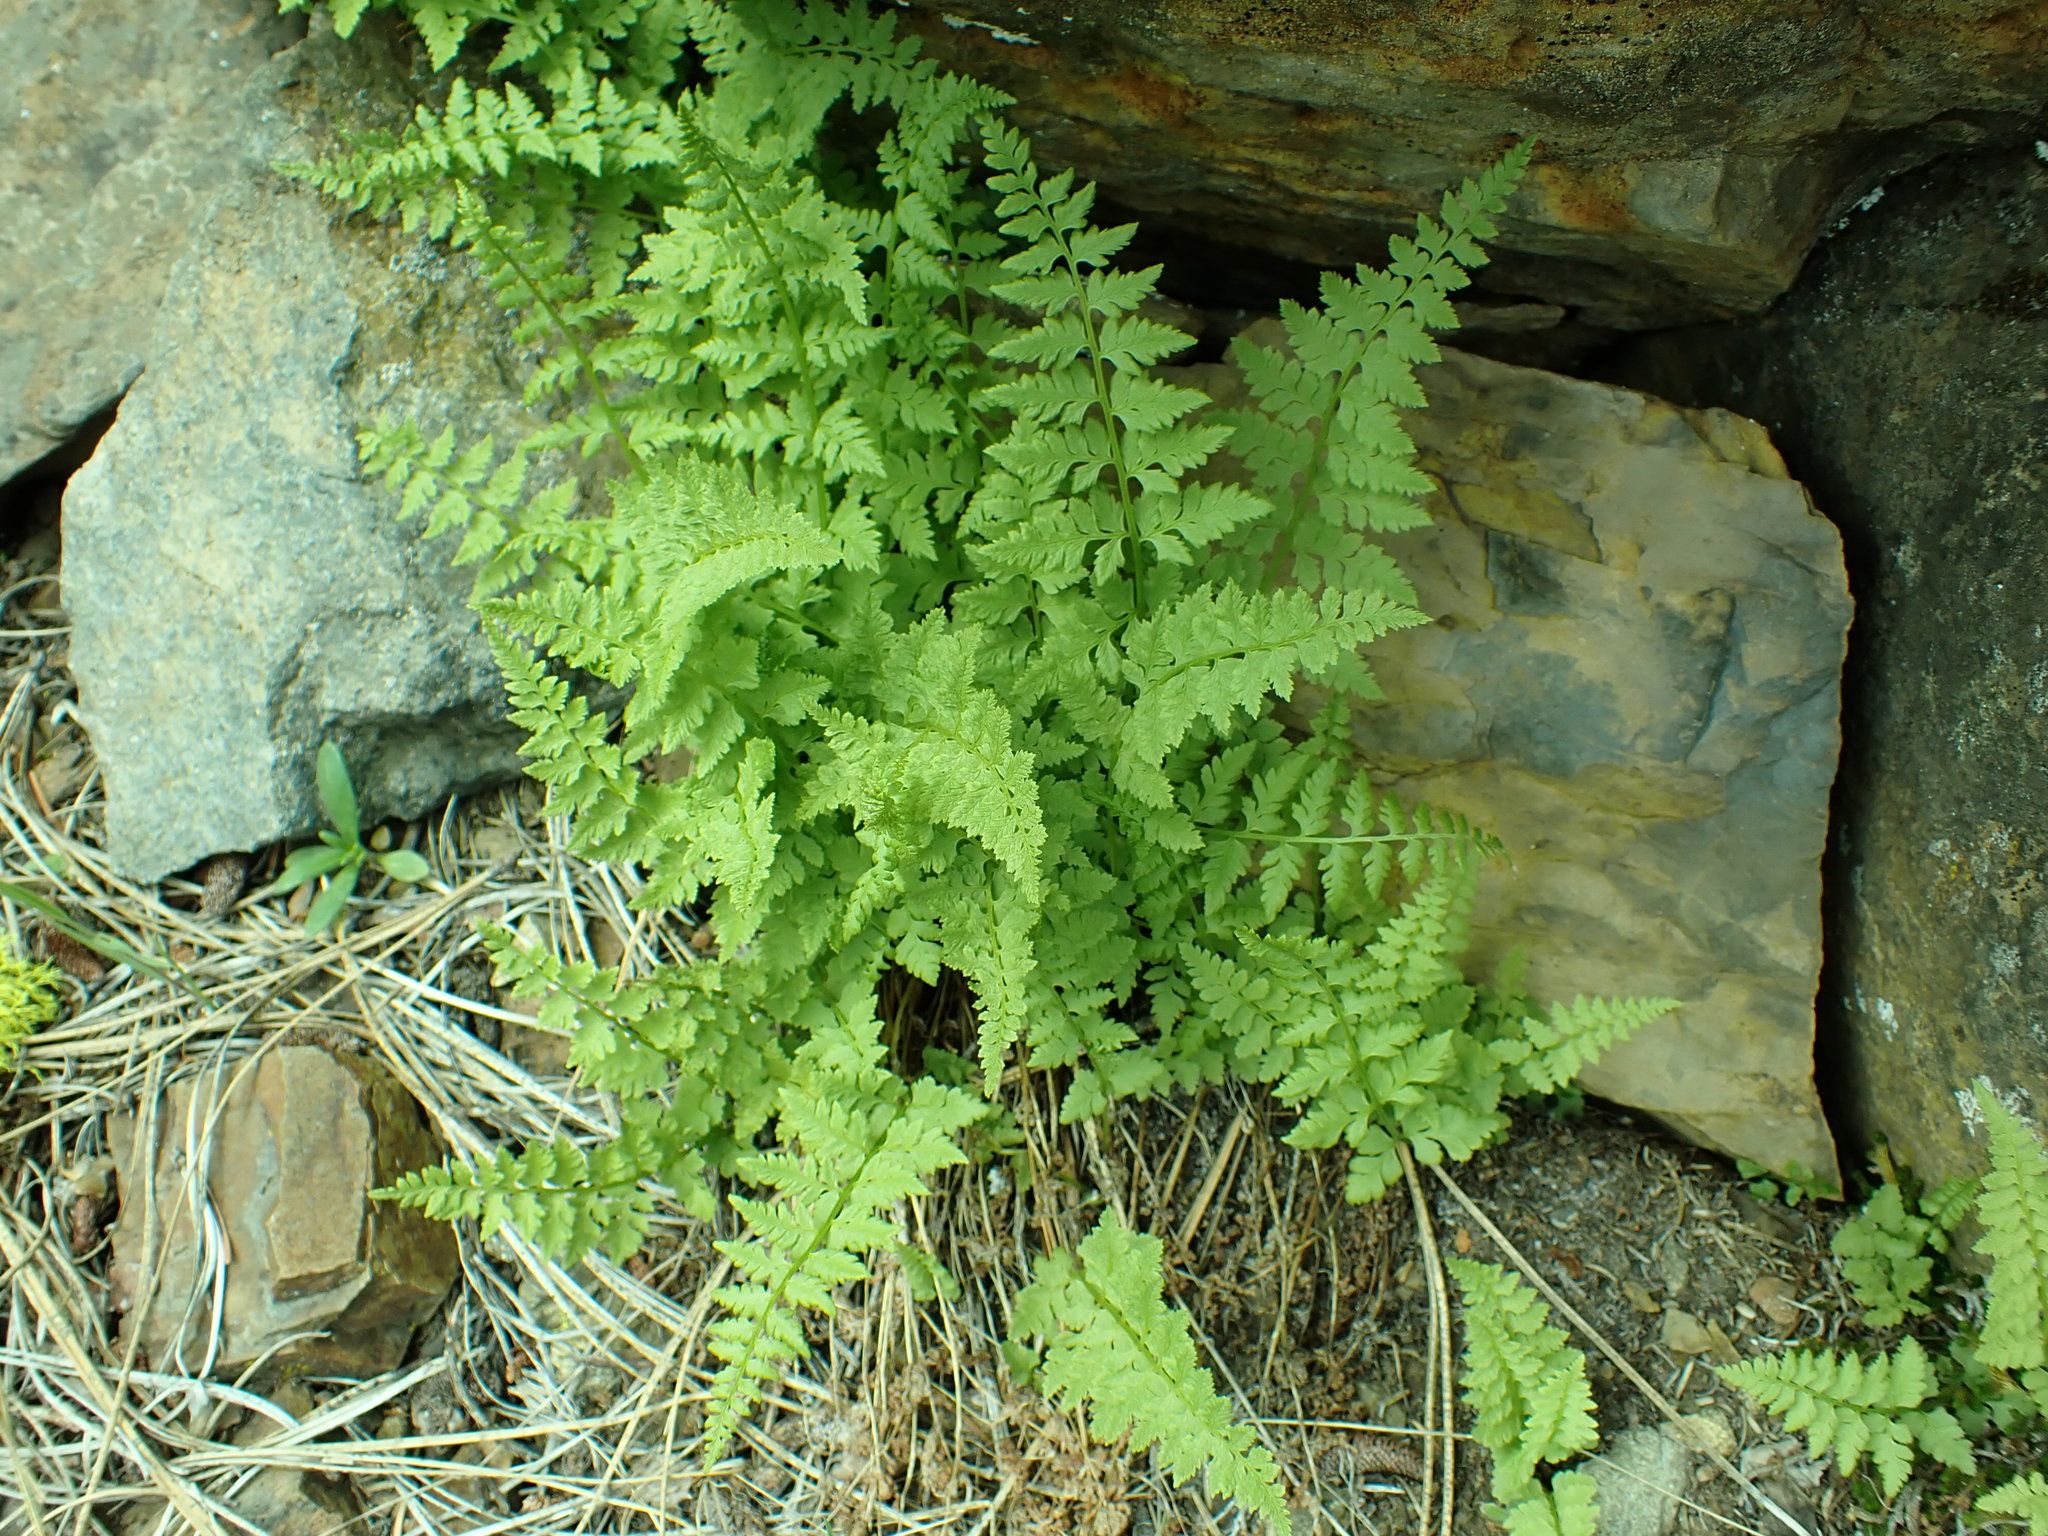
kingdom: Plantae
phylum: Tracheophyta
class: Polypodiopsida
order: Polypodiales
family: Cystopteridaceae
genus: Cystopteris
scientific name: Cystopteris fragilis
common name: Brittle bladder fern
